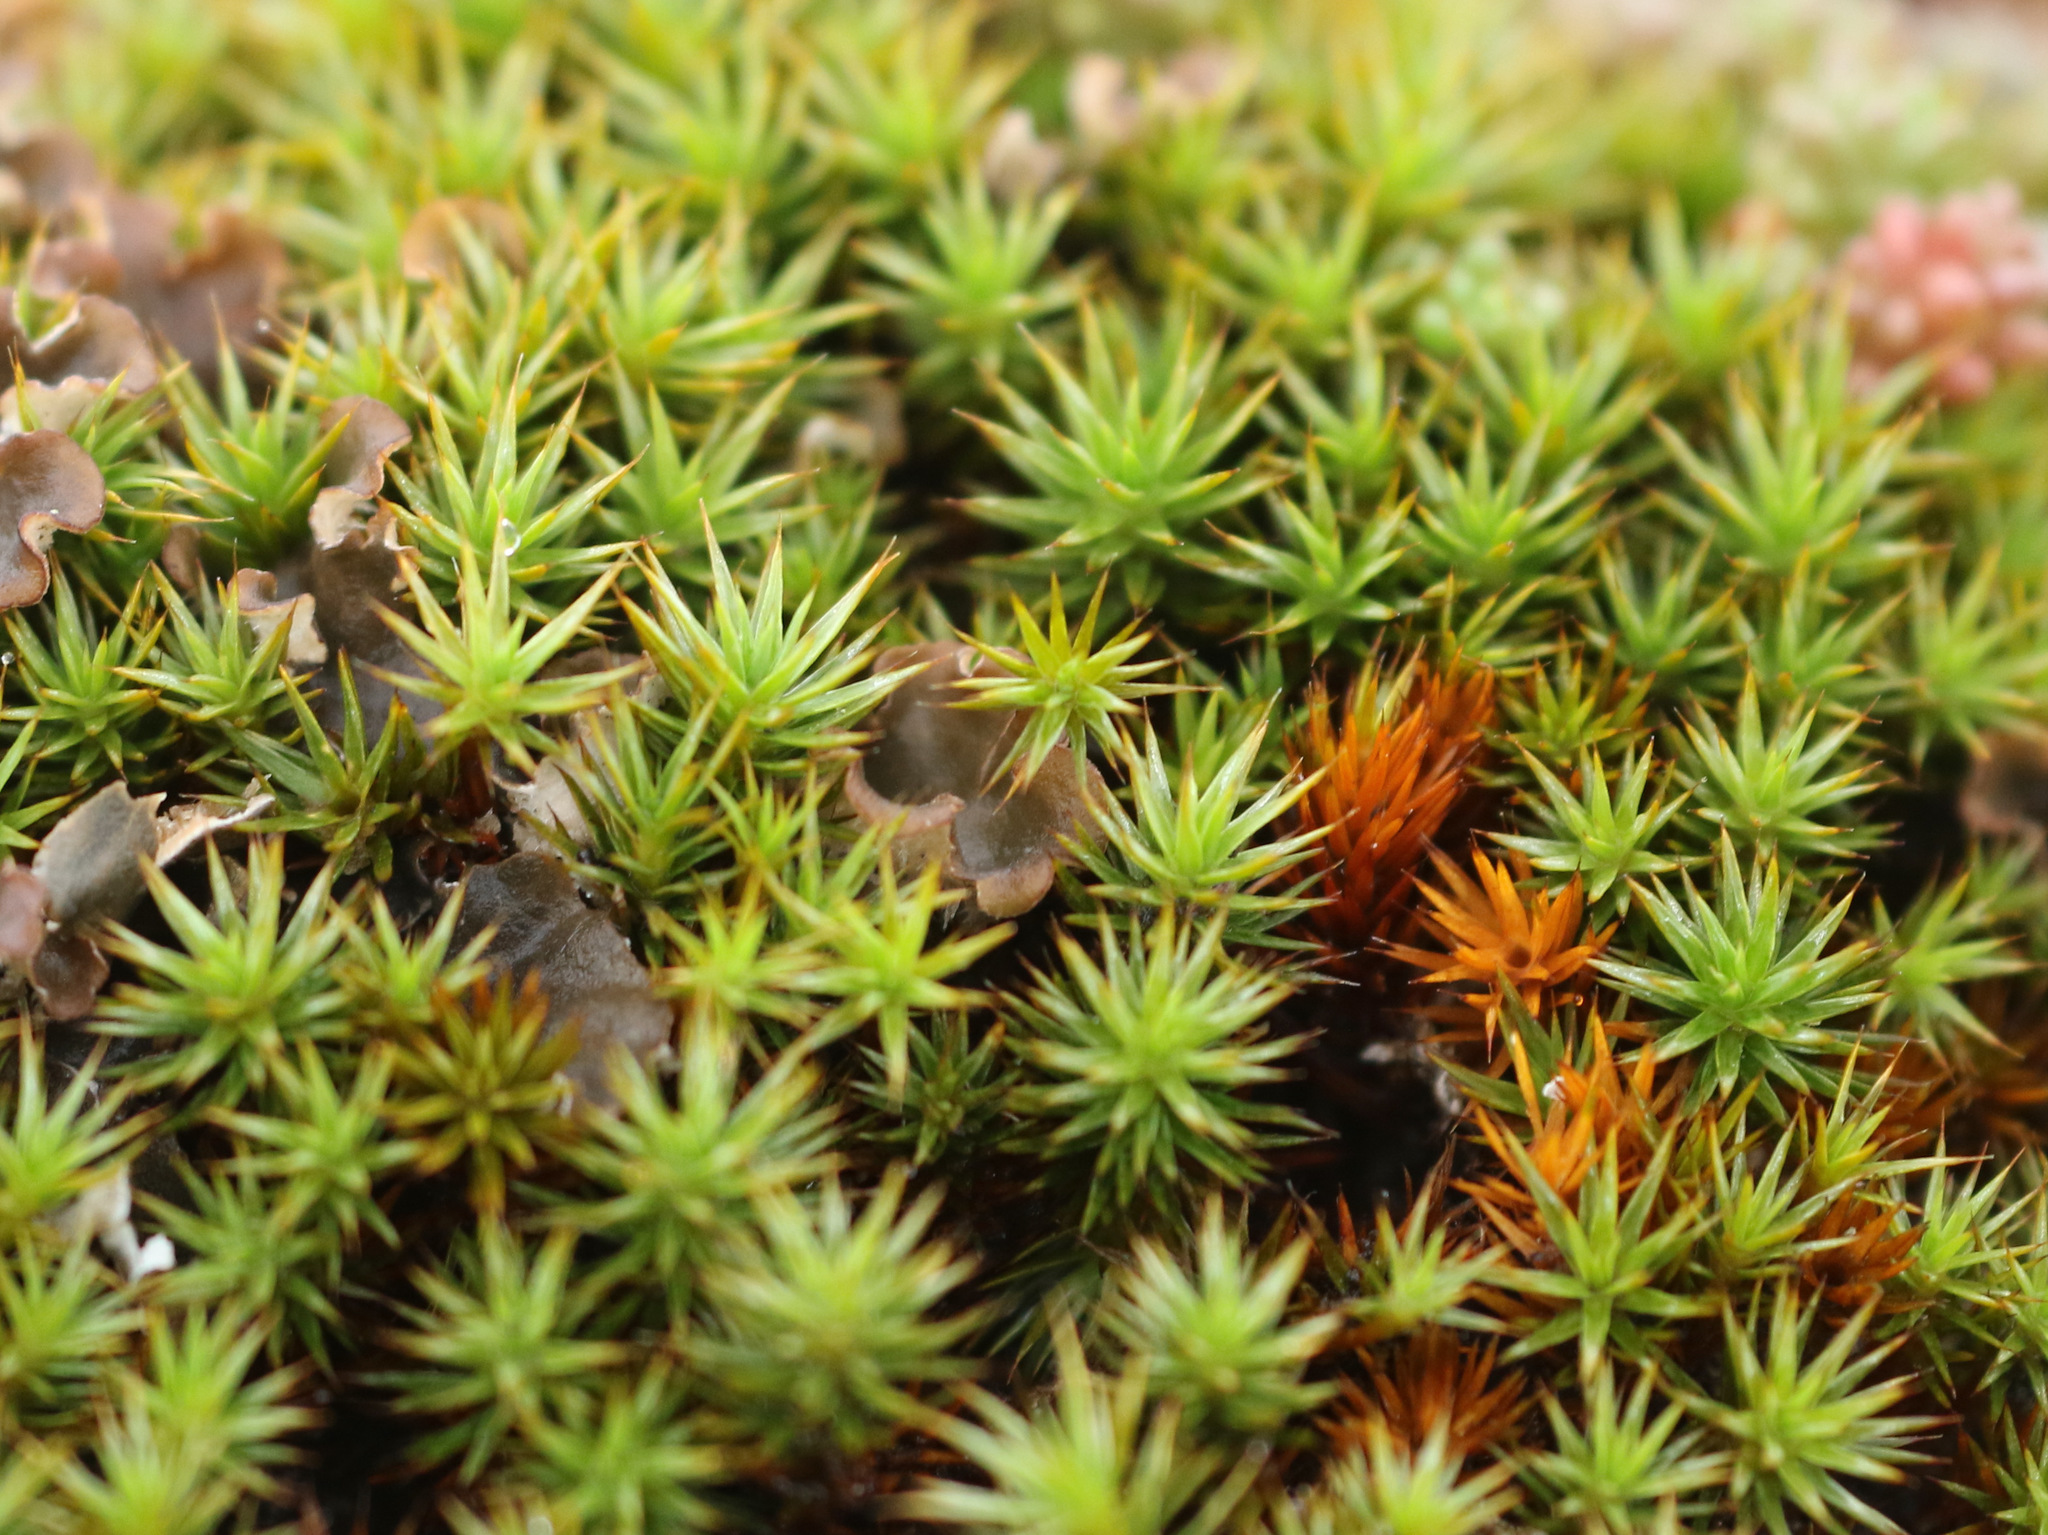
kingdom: Plantae
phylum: Bryophyta
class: Polytrichopsida
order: Polytrichales
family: Polytrichaceae
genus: Polytrichum
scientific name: Polytrichum juniperinum
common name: Juniper haircap moss
